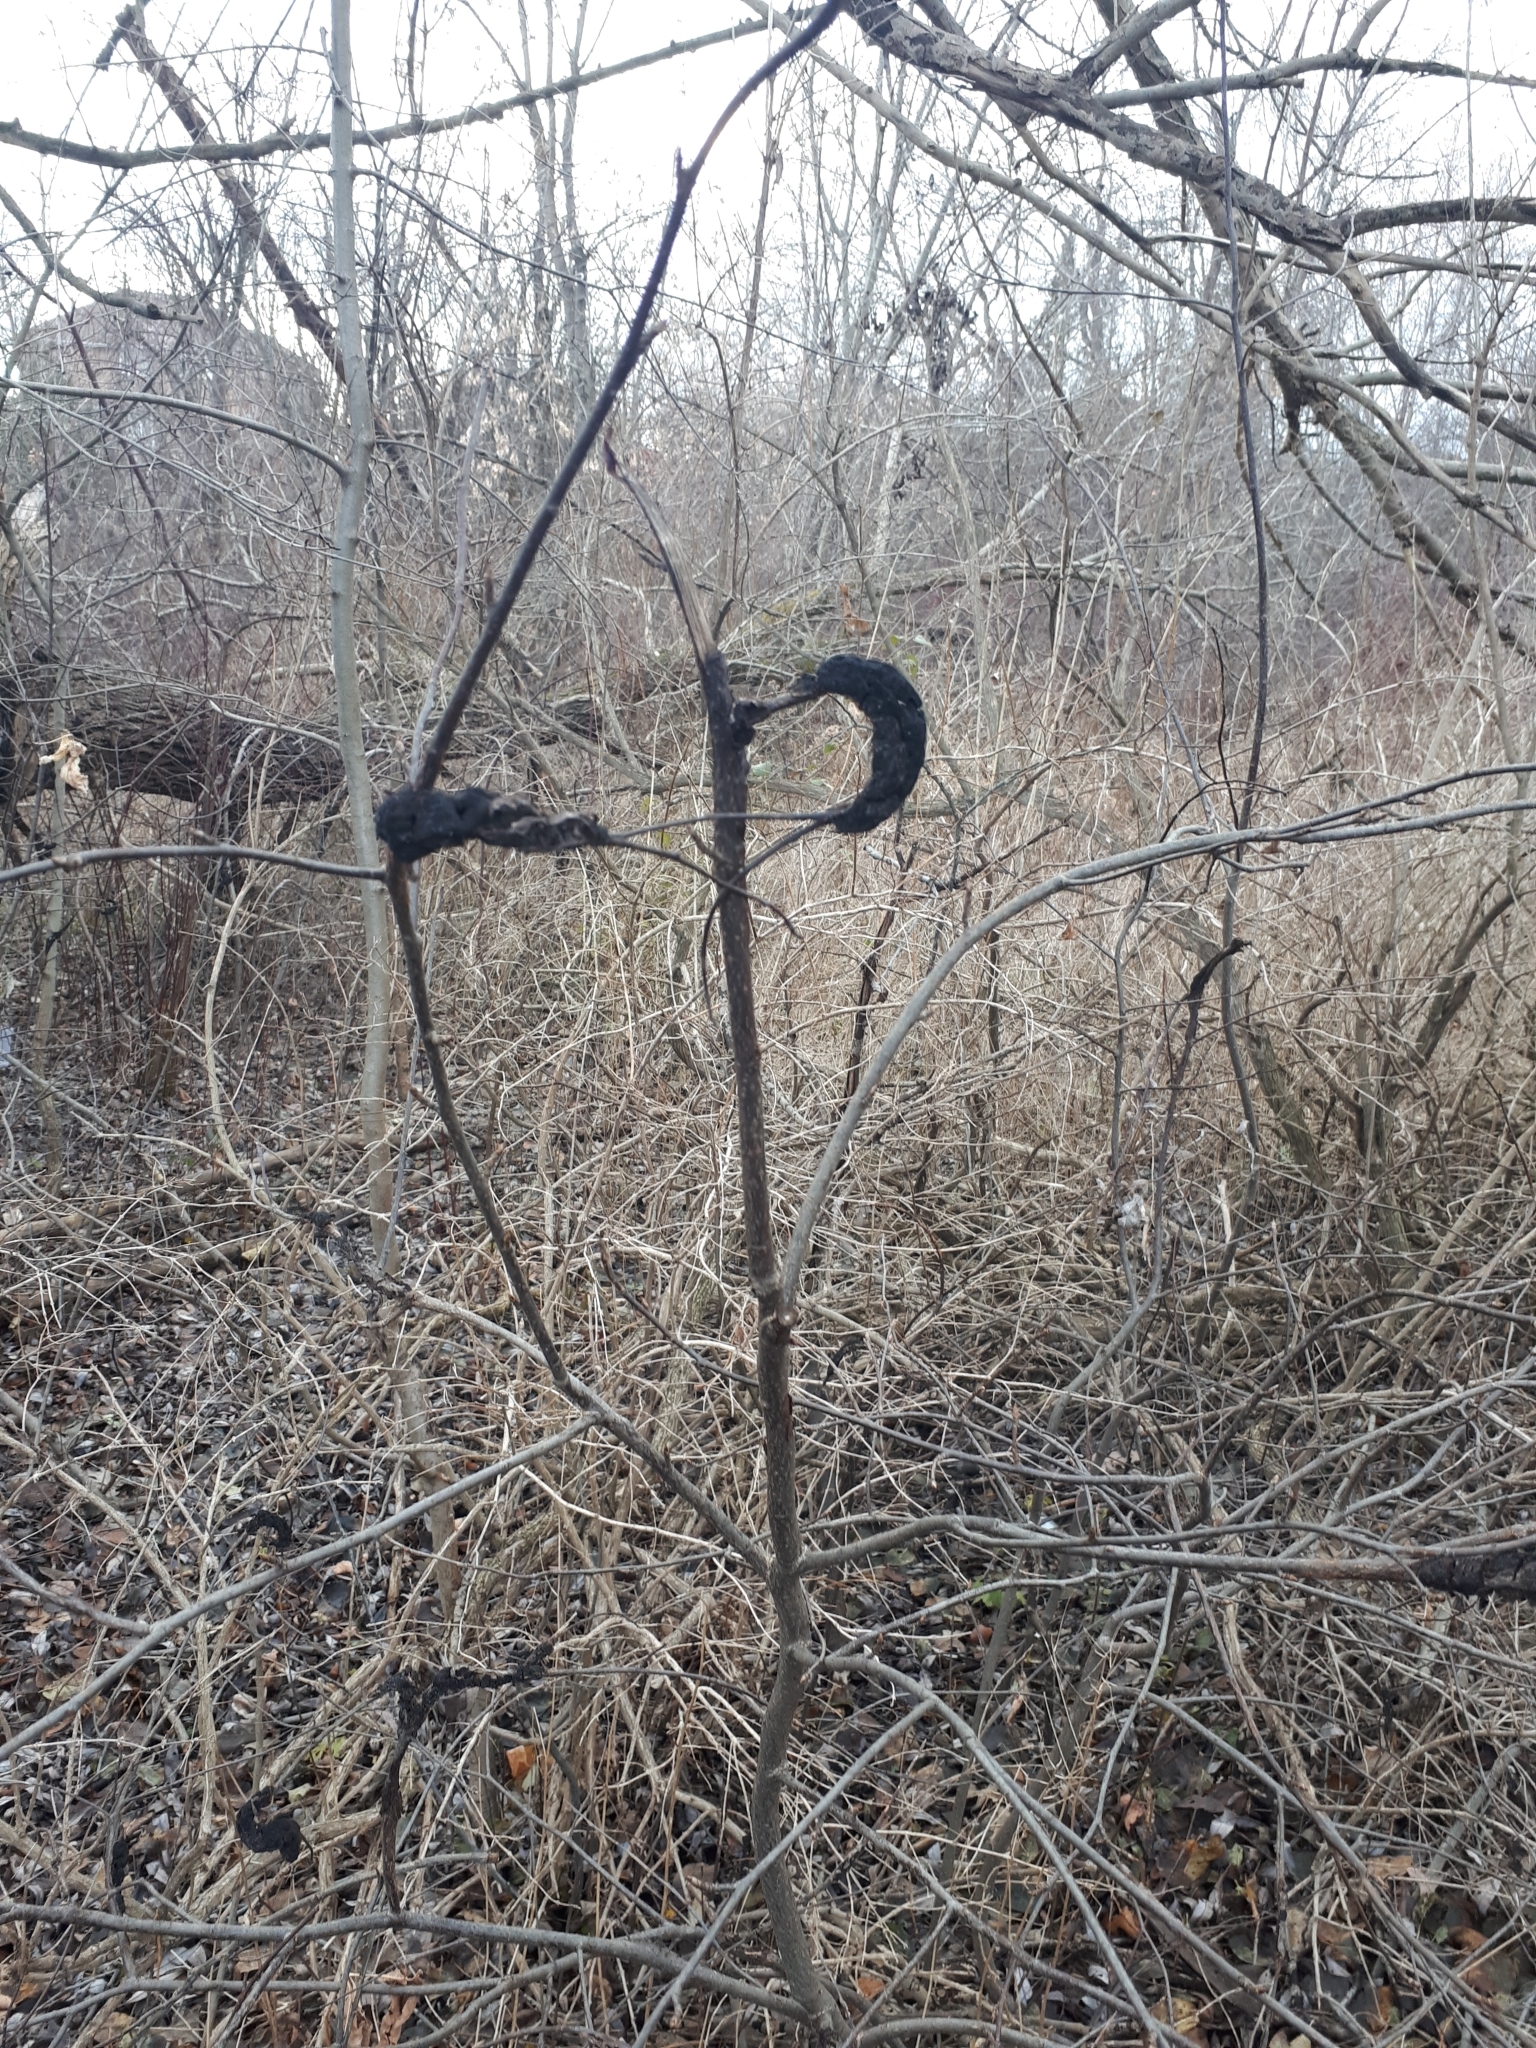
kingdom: Fungi
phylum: Ascomycota
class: Dothideomycetes
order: Venturiales
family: Venturiaceae
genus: Apiosporina
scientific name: Apiosporina morbosa
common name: Black knot
